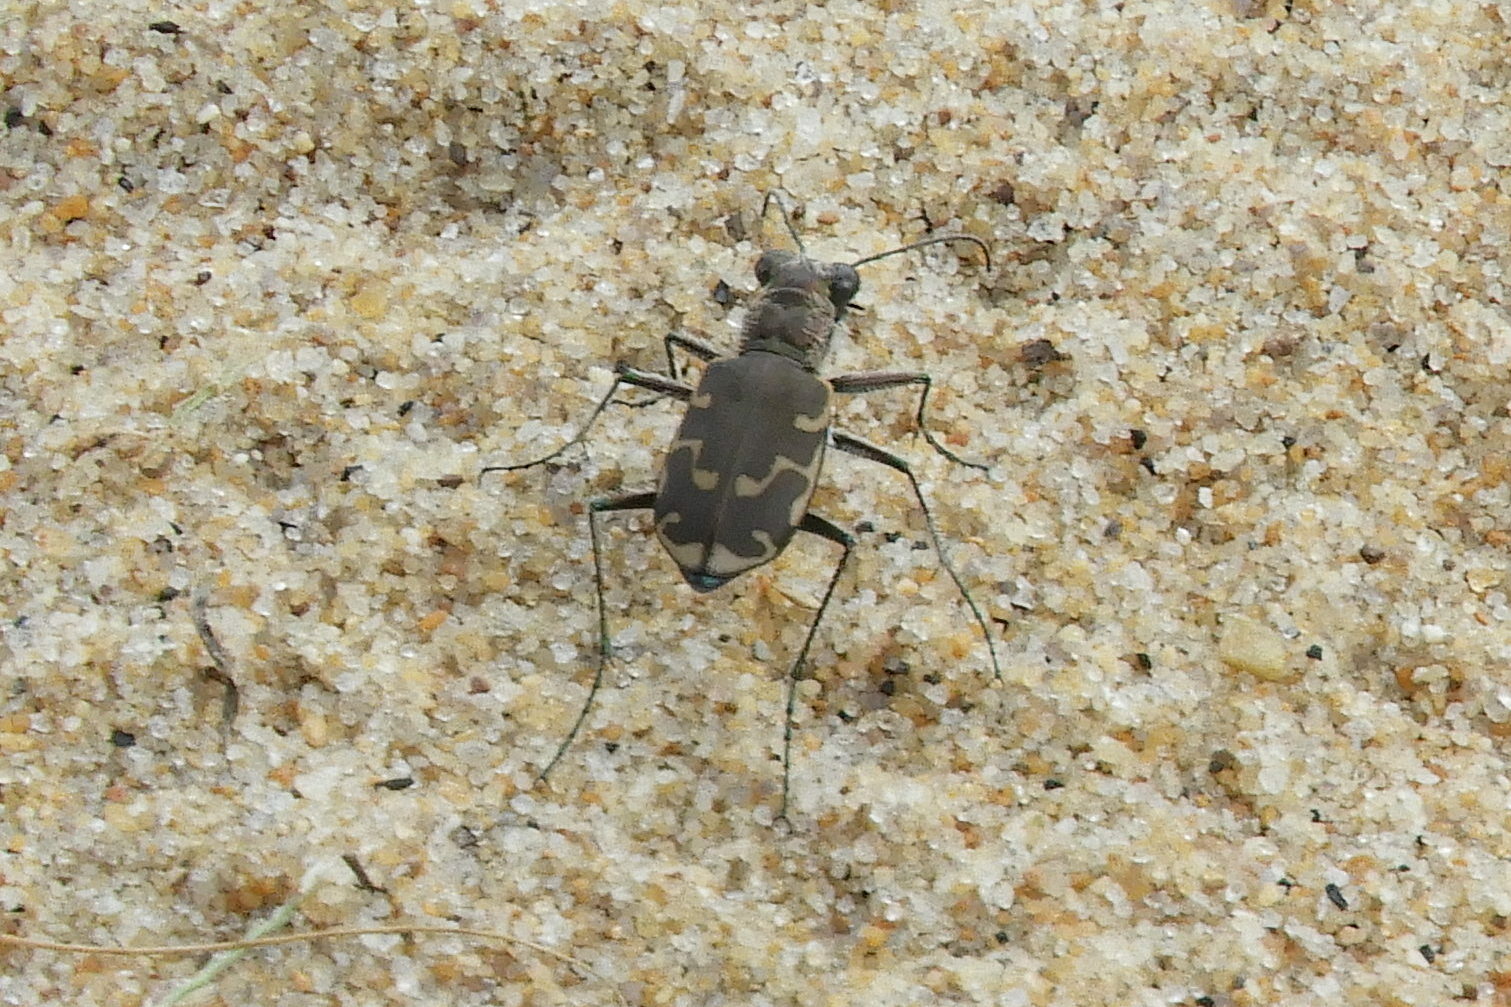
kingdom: Animalia
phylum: Arthropoda
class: Insecta
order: Coleoptera
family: Carabidae
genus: Cicindela
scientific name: Cicindela repanda
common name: Bronzed tiger beetle
